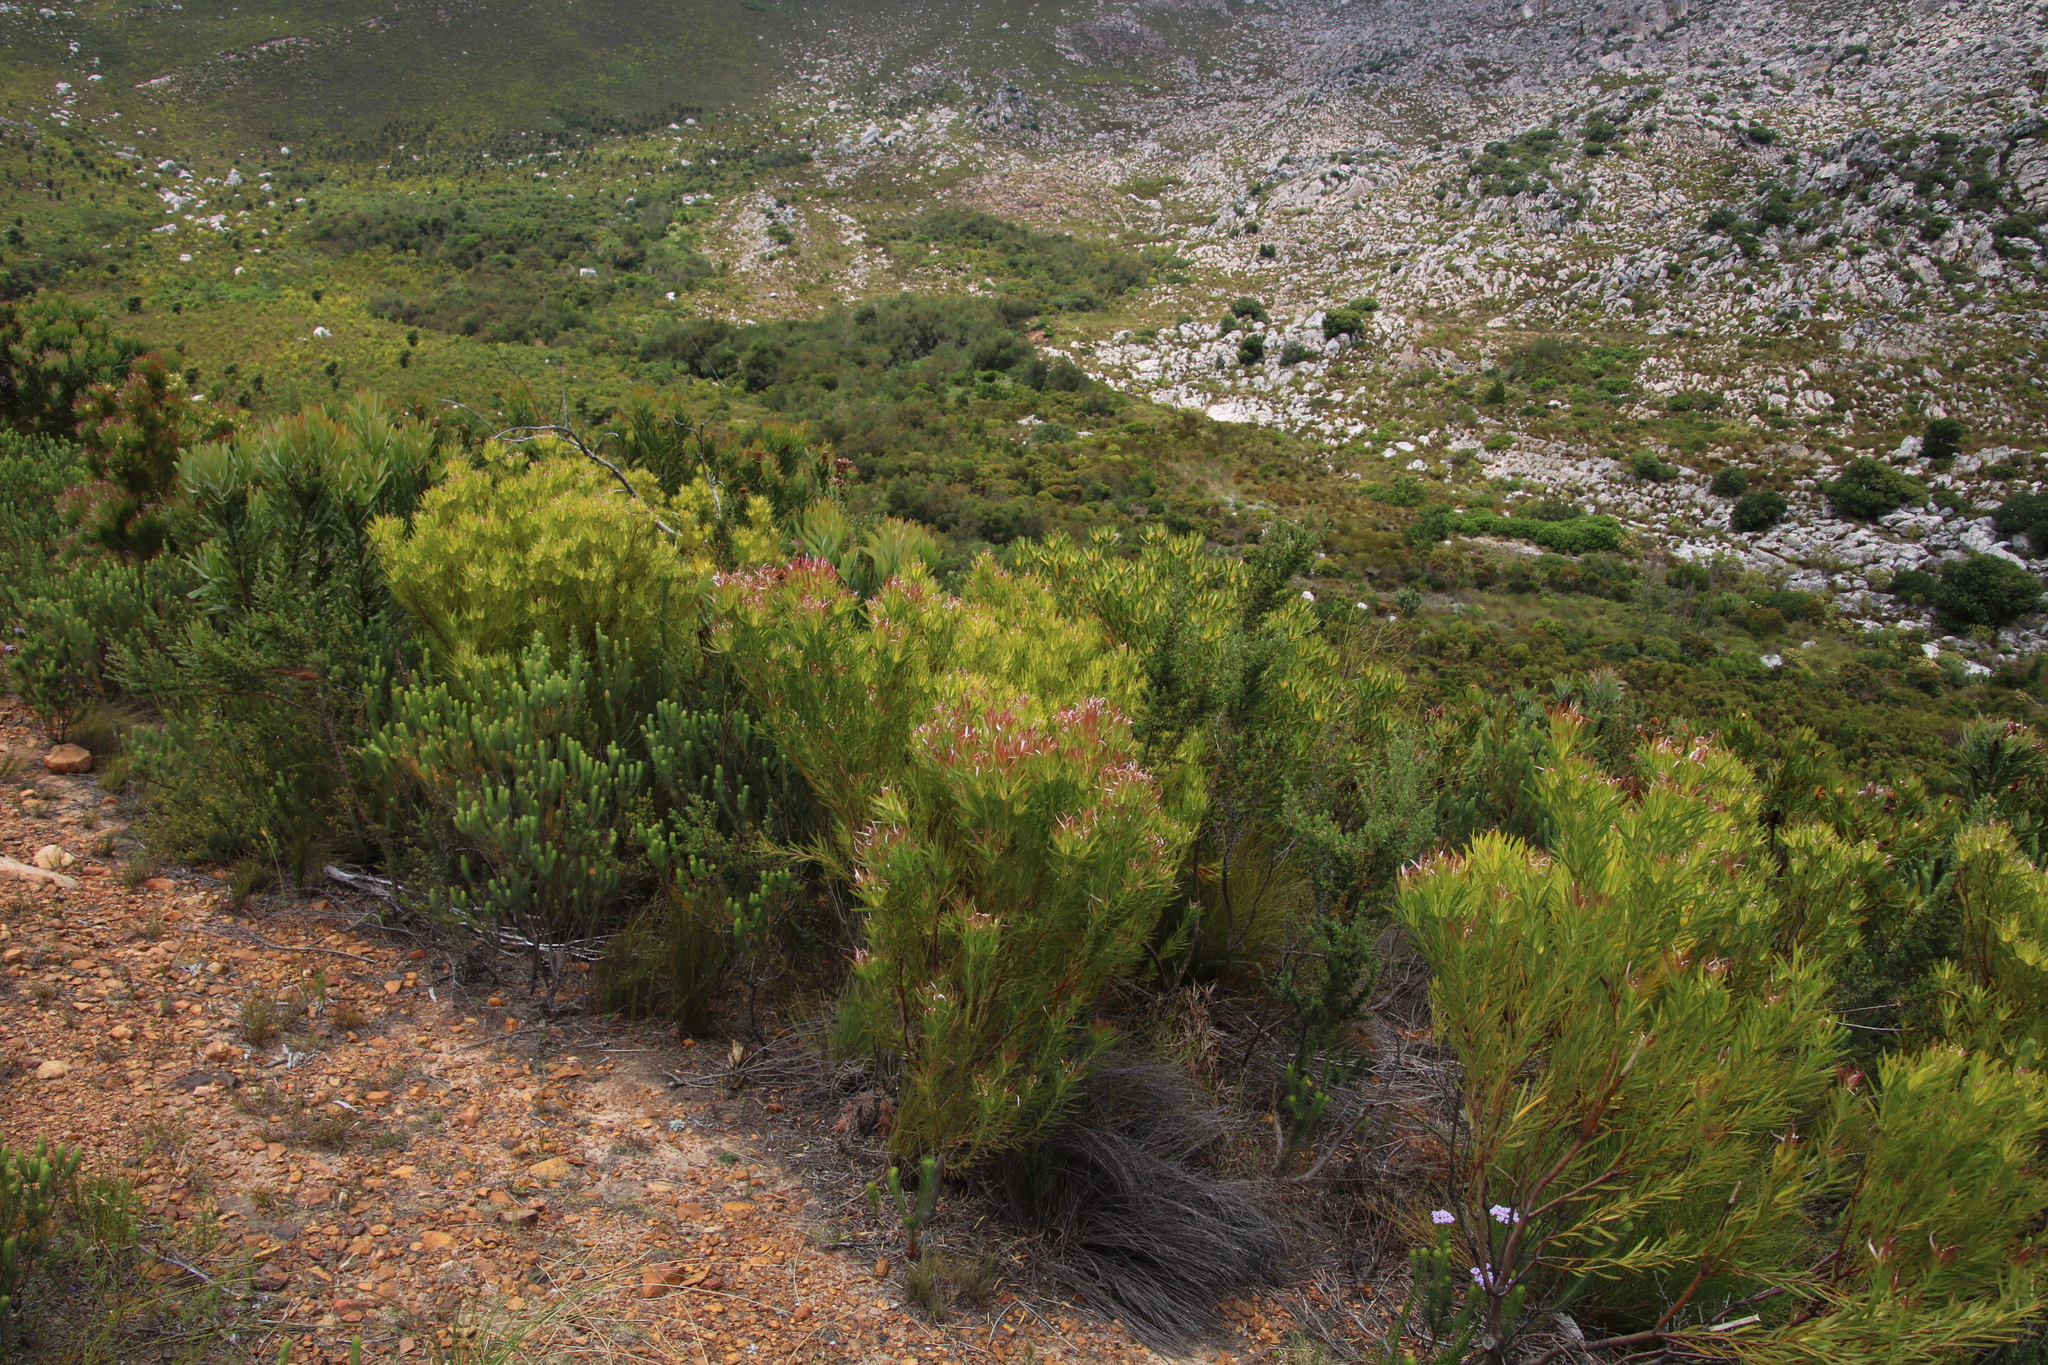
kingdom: Plantae
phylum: Tracheophyta
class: Magnoliopsida
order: Proteales
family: Proteaceae
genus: Leucadendron
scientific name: Leucadendron xanthoconus
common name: Sickle-leaf conebush
